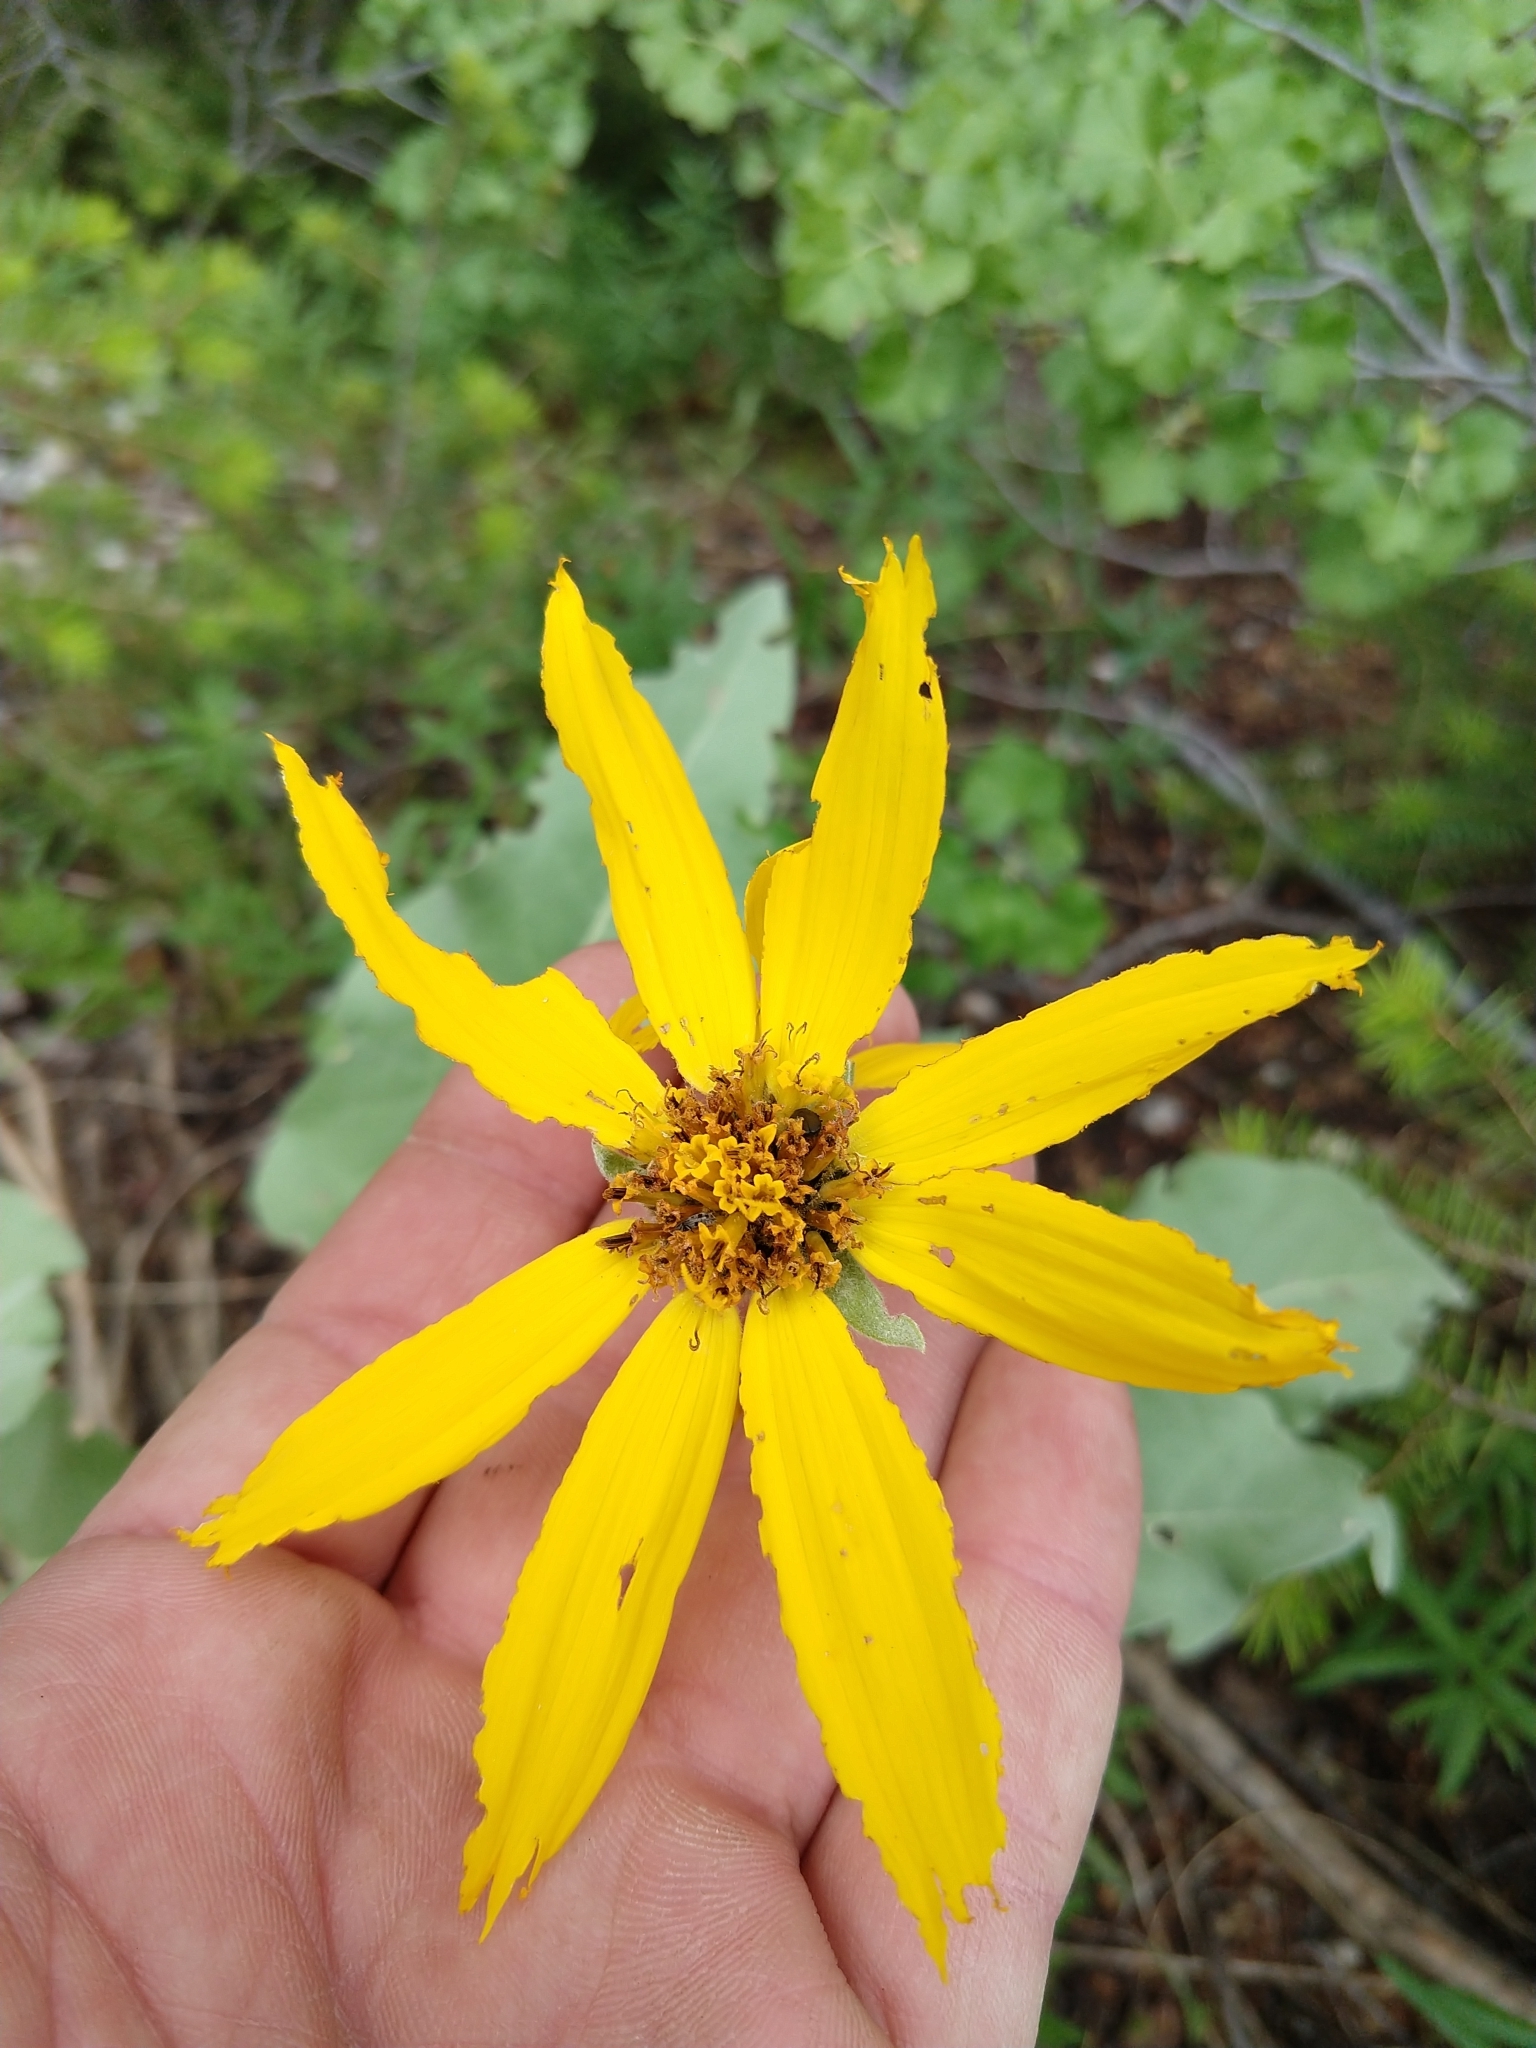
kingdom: Plantae
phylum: Tracheophyta
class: Magnoliopsida
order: Asterales
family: Asteraceae
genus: Wyethia
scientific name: Wyethia sagittata
